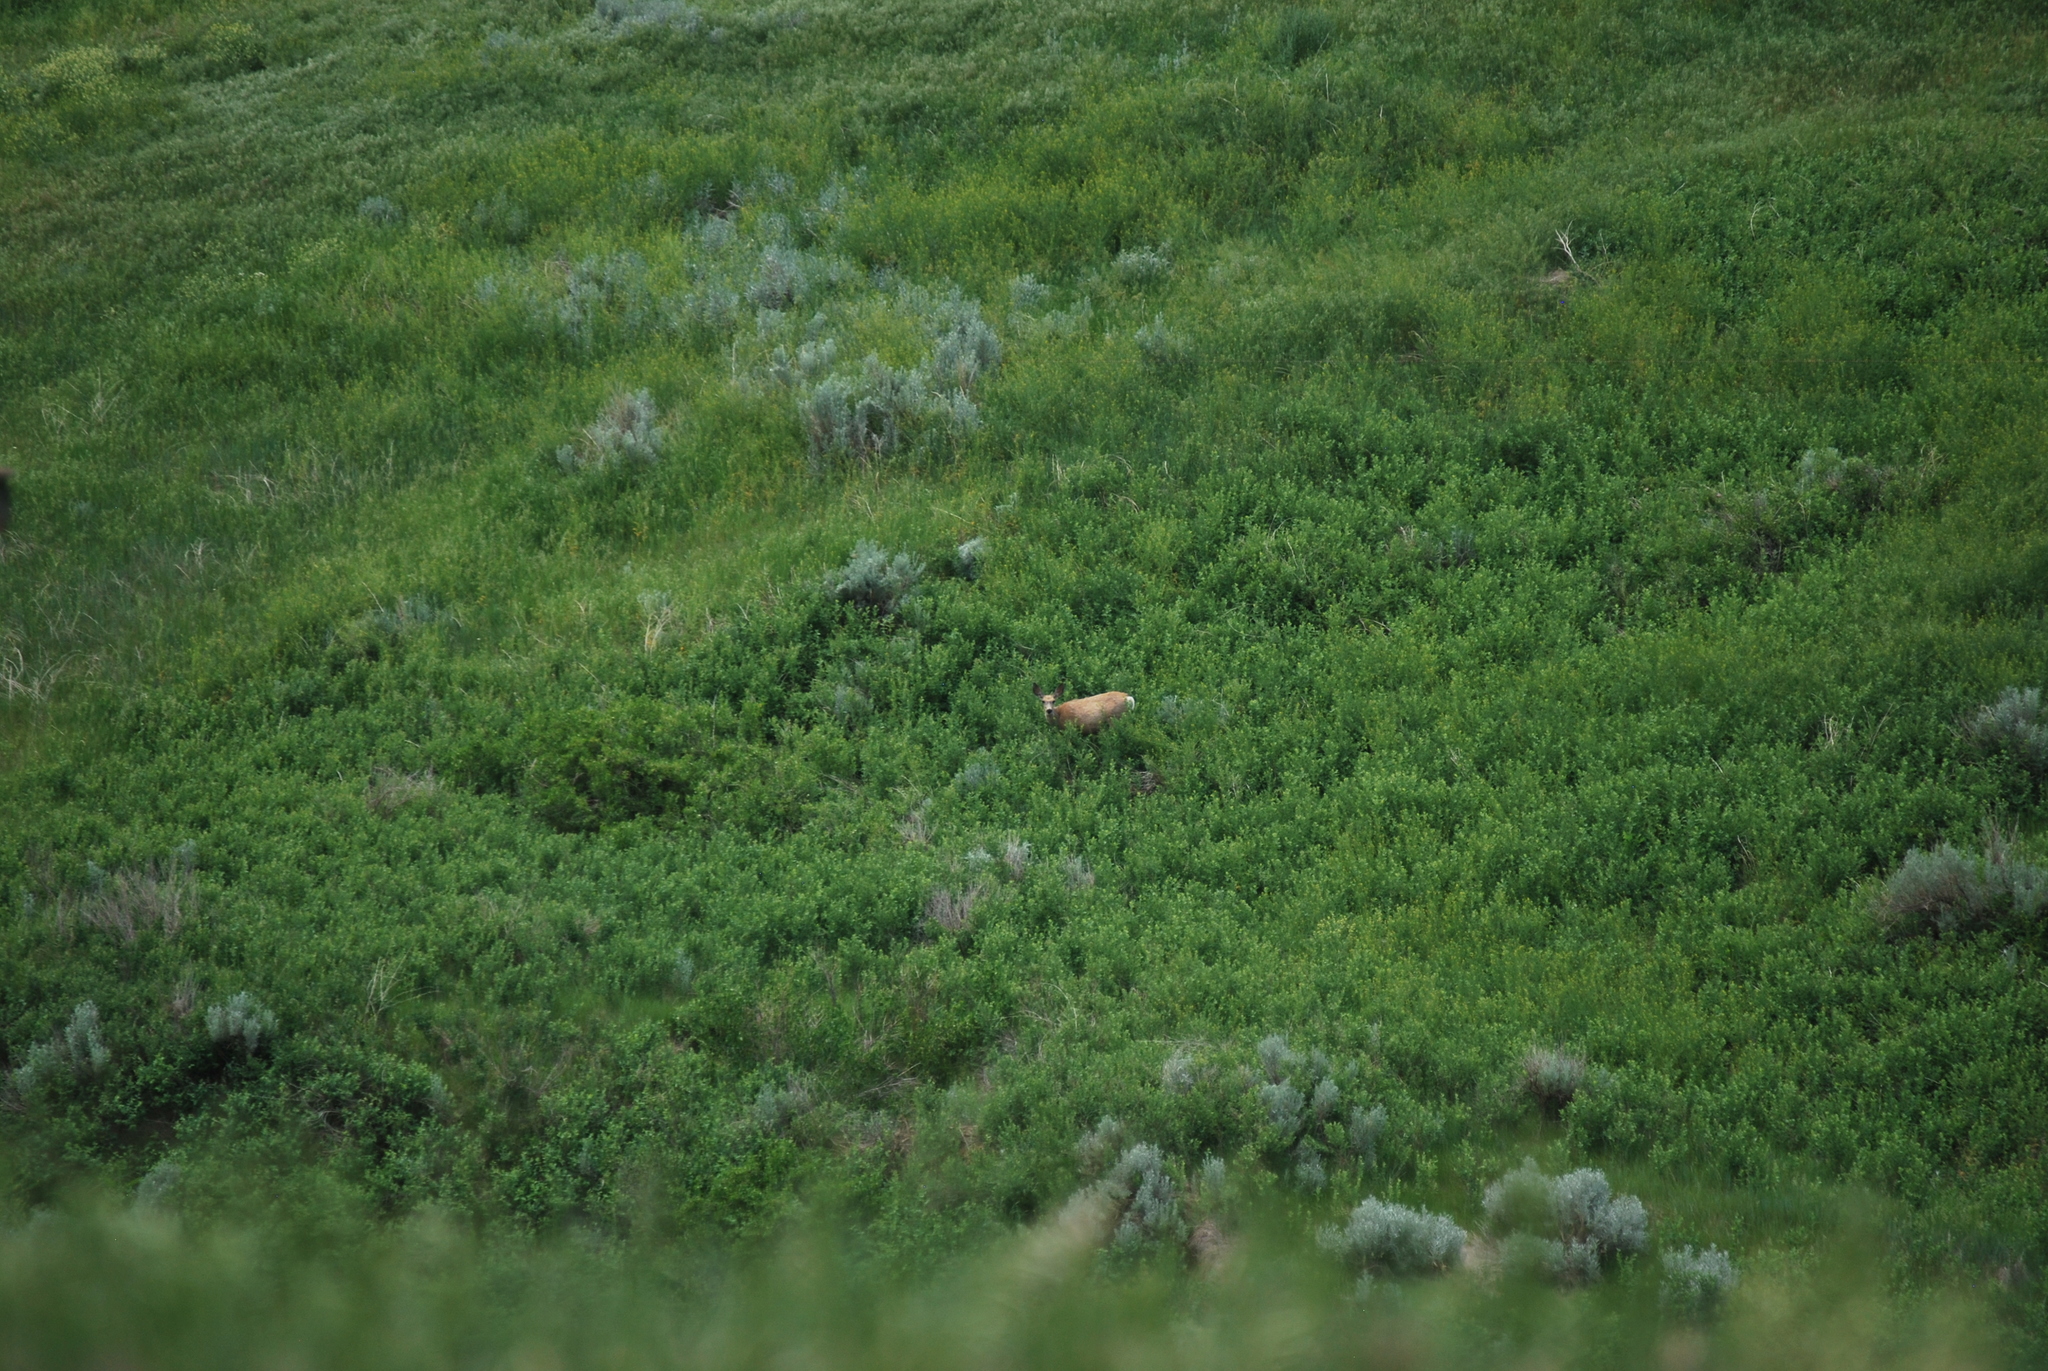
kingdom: Animalia
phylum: Chordata
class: Mammalia
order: Artiodactyla
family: Cervidae
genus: Odocoileus
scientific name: Odocoileus hemionus
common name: Mule deer
